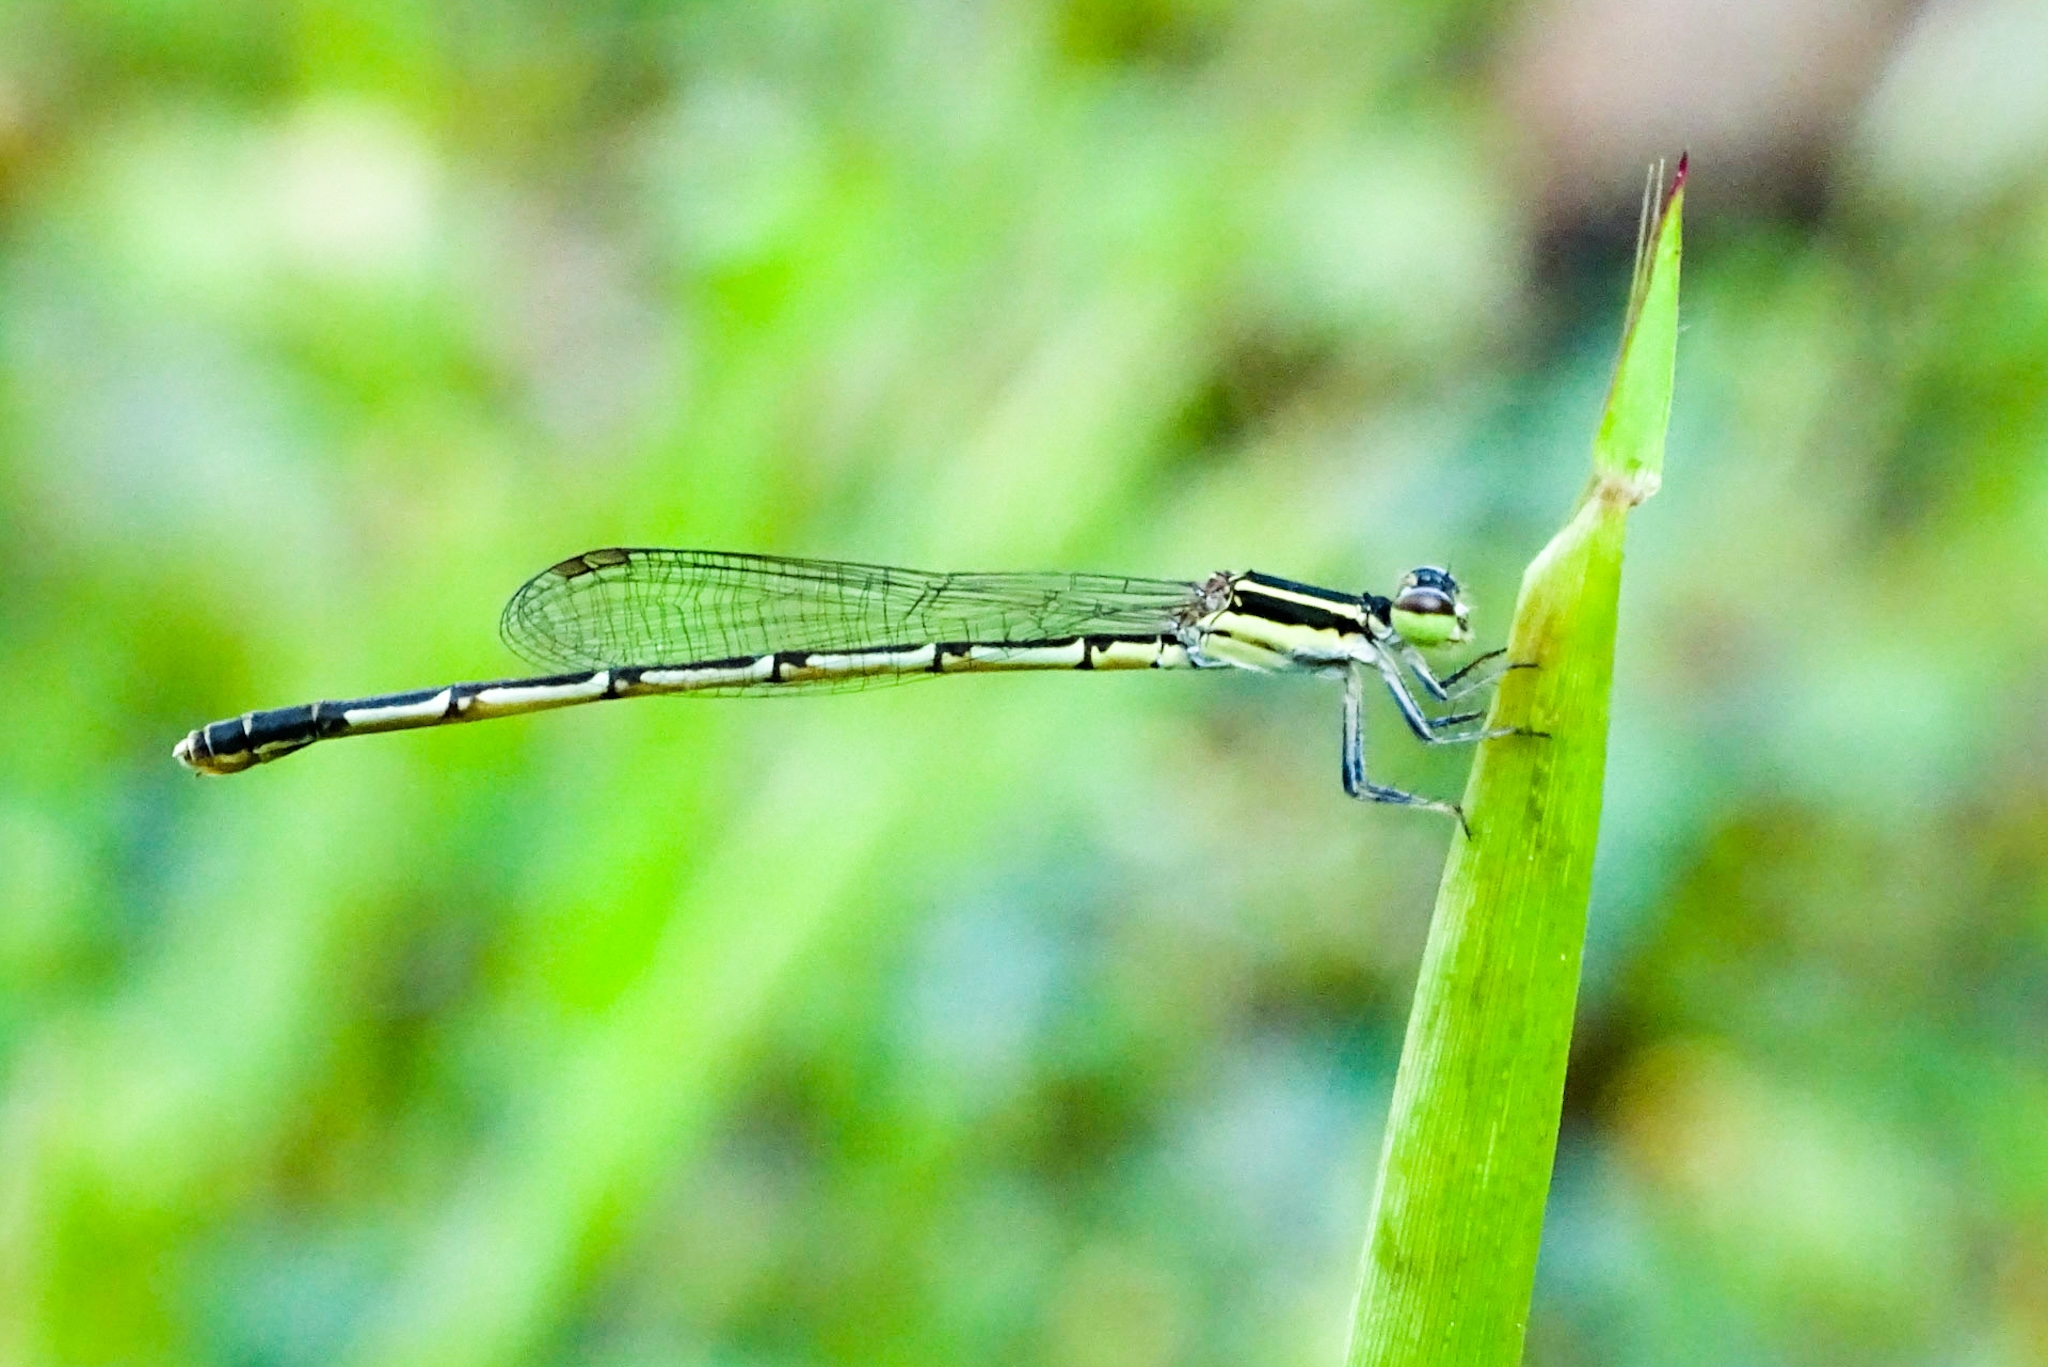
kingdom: Animalia
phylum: Arthropoda
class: Insecta
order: Odonata
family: Coenagrionidae
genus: Agriocnemis
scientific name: Agriocnemis splendidissima
